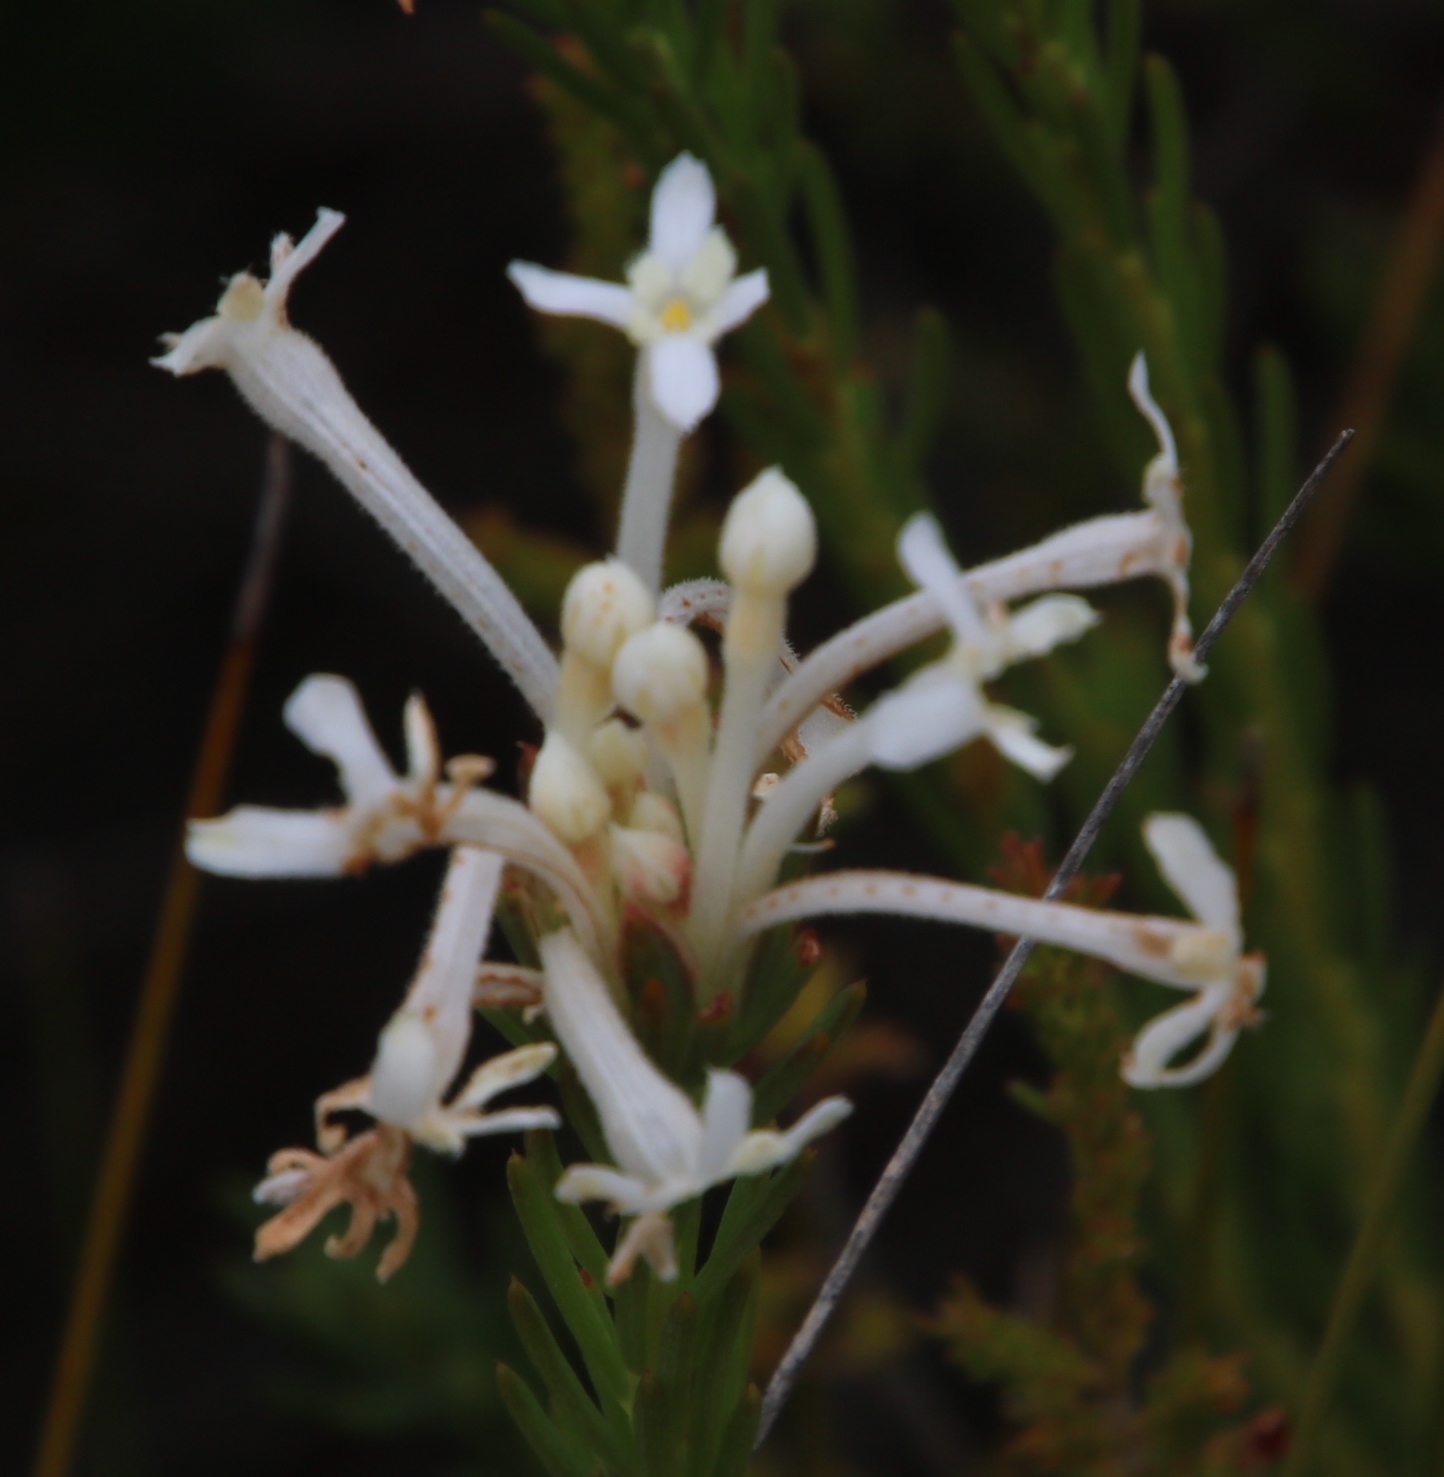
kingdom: Plantae
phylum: Tracheophyta
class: Magnoliopsida
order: Malvales
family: Thymelaeaceae
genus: Gnidia
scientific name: Gnidia pinifolia
